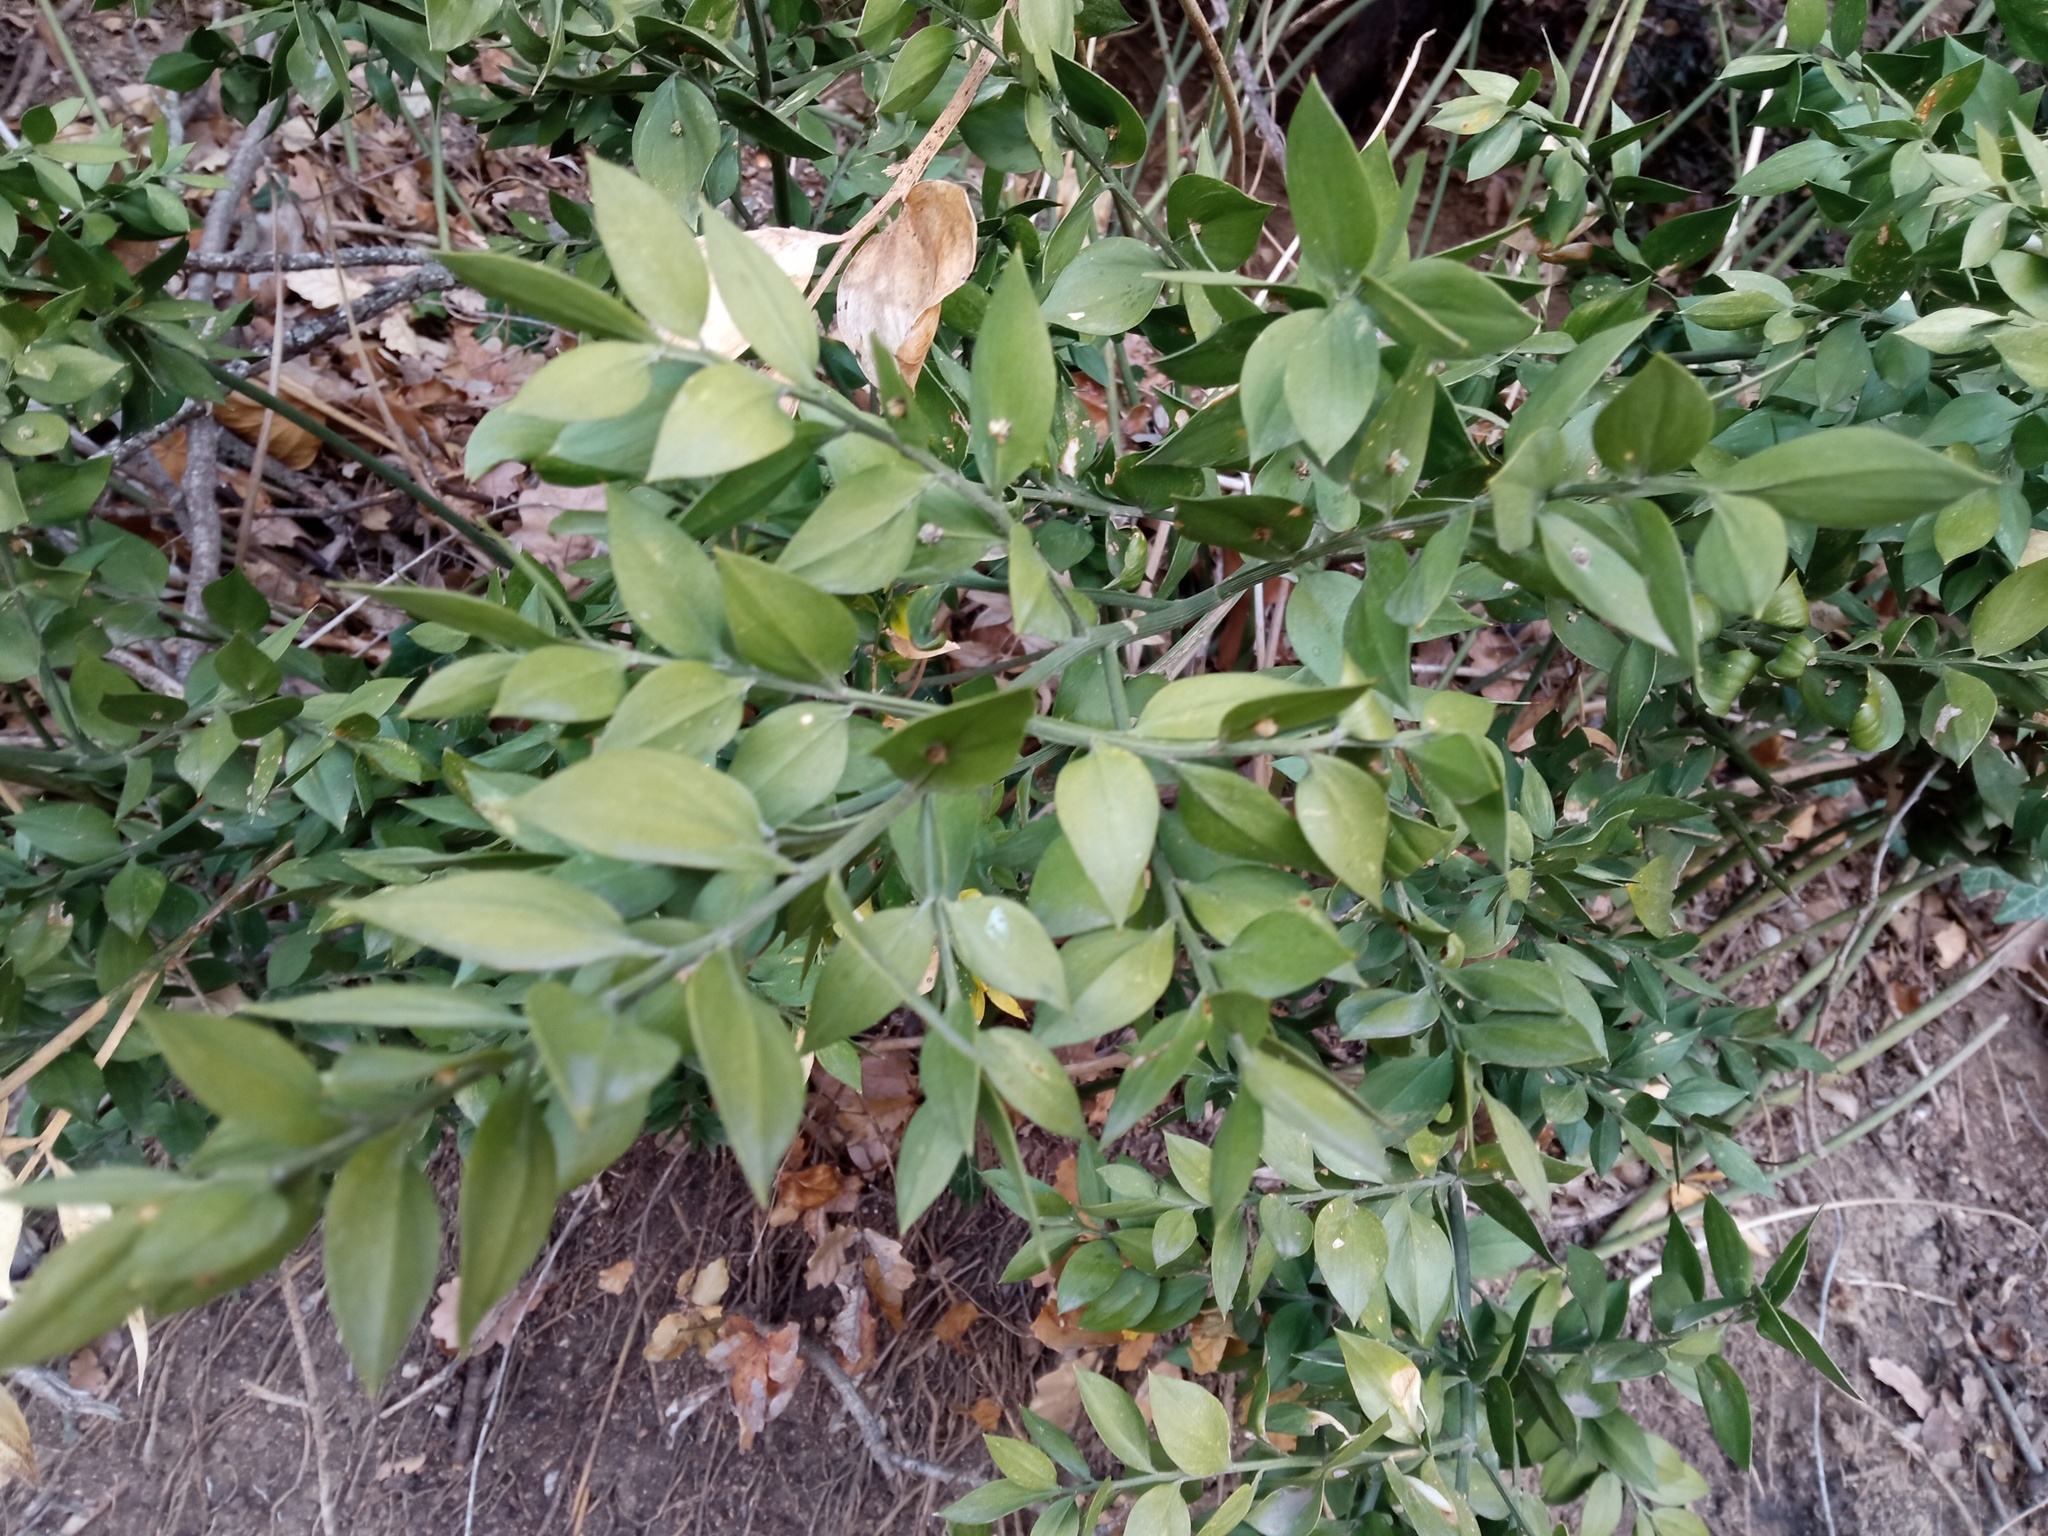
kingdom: Plantae
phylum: Tracheophyta
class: Liliopsida
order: Asparagales
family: Asparagaceae
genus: Ruscus
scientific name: Ruscus aculeatus
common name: Butcher's-broom
